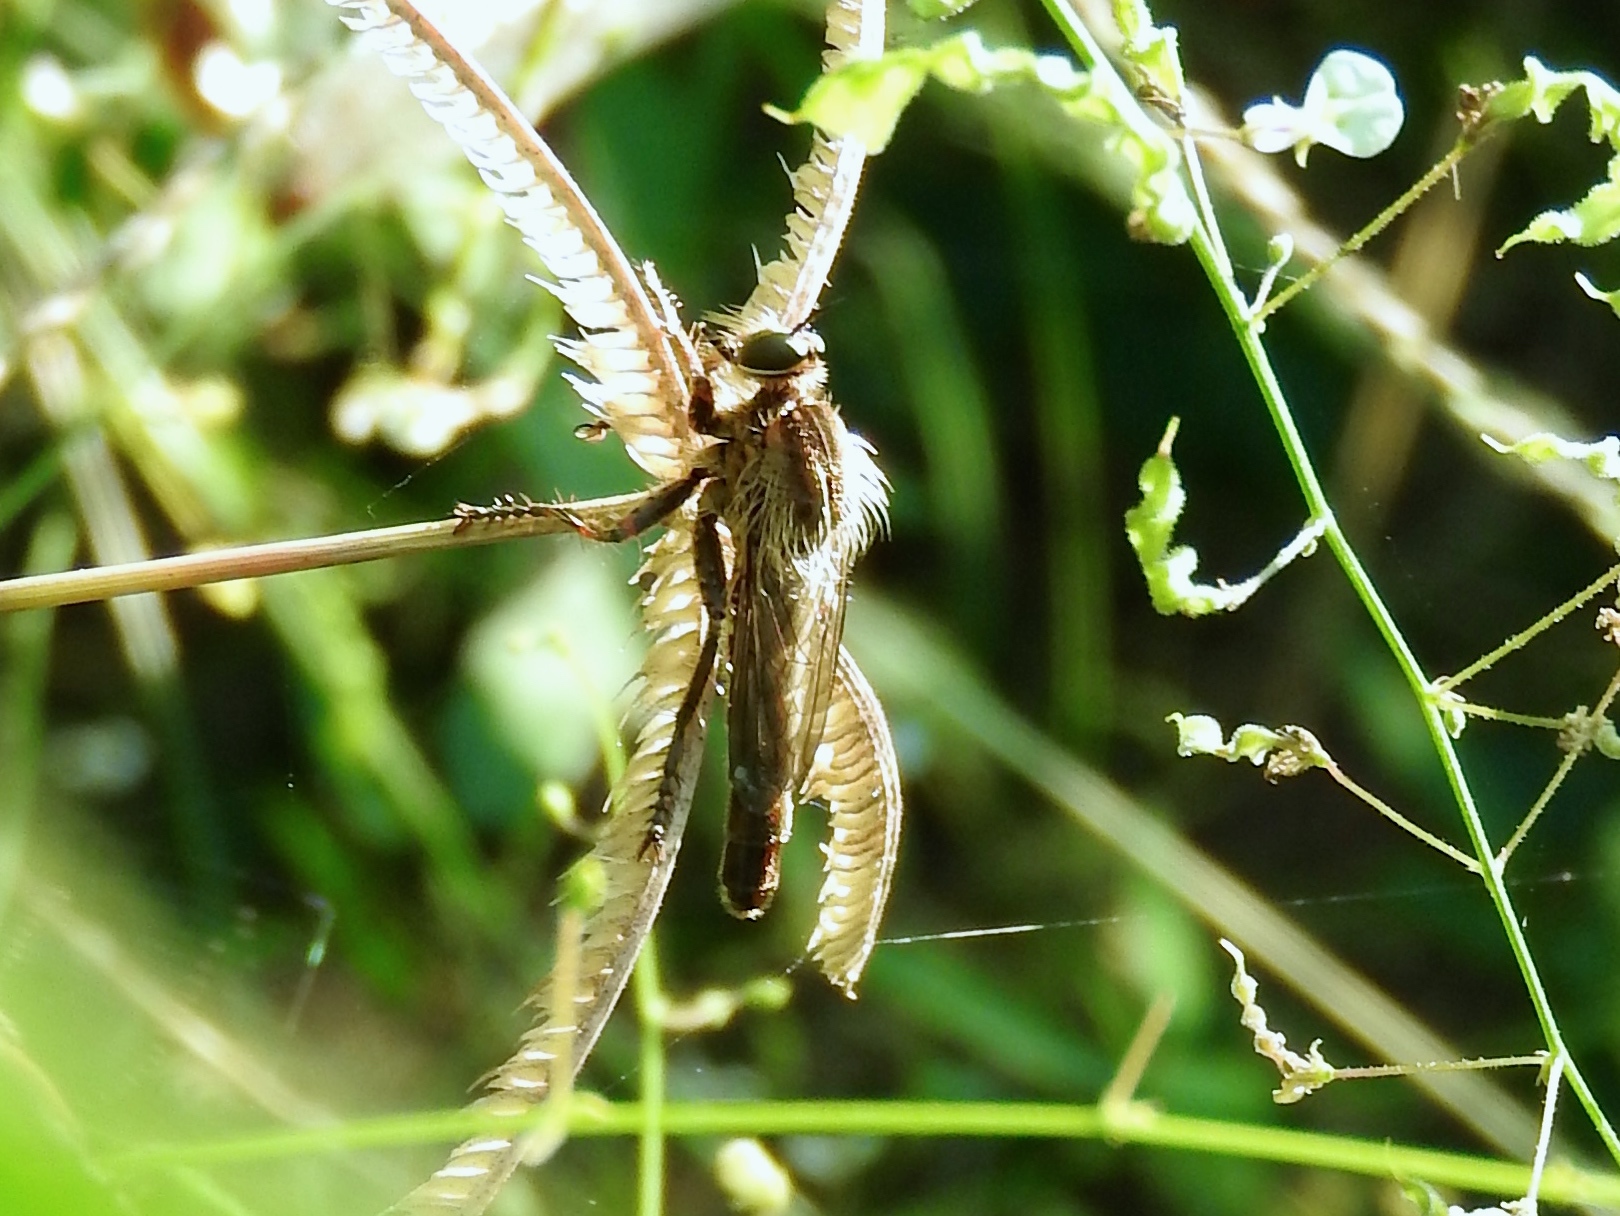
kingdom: Animalia
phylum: Arthropoda
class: Insecta
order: Diptera
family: Asilidae
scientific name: Asilidae
